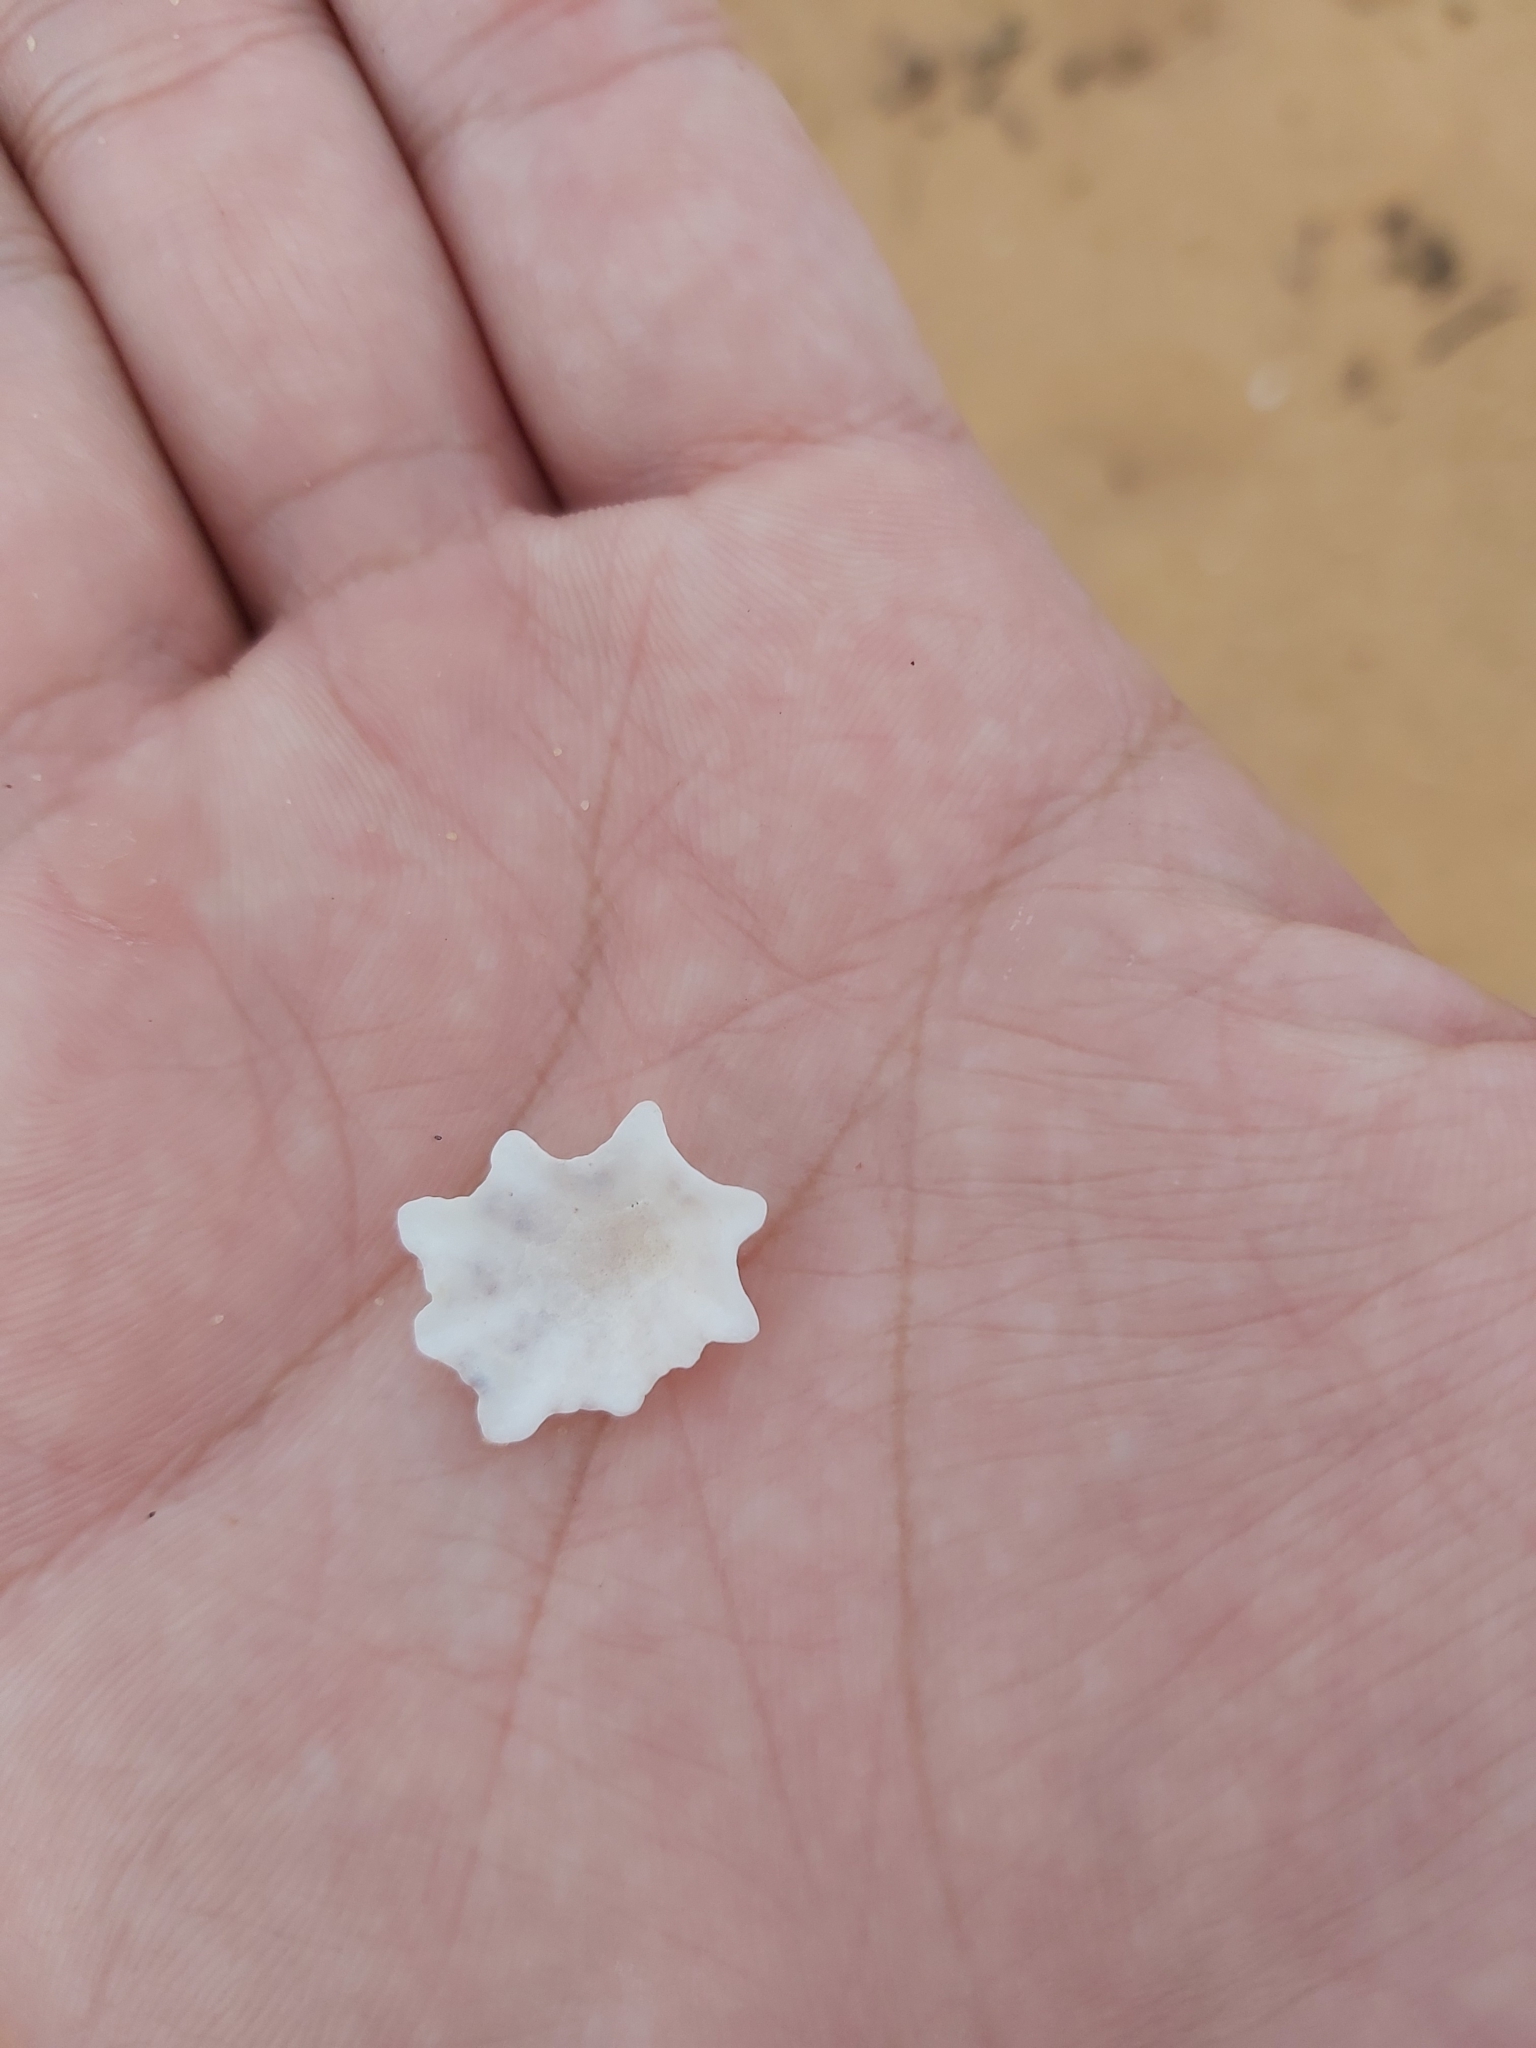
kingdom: Animalia
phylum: Mollusca
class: Gastropoda
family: Patellidae
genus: Scutellastra
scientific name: Scutellastra chapmani
